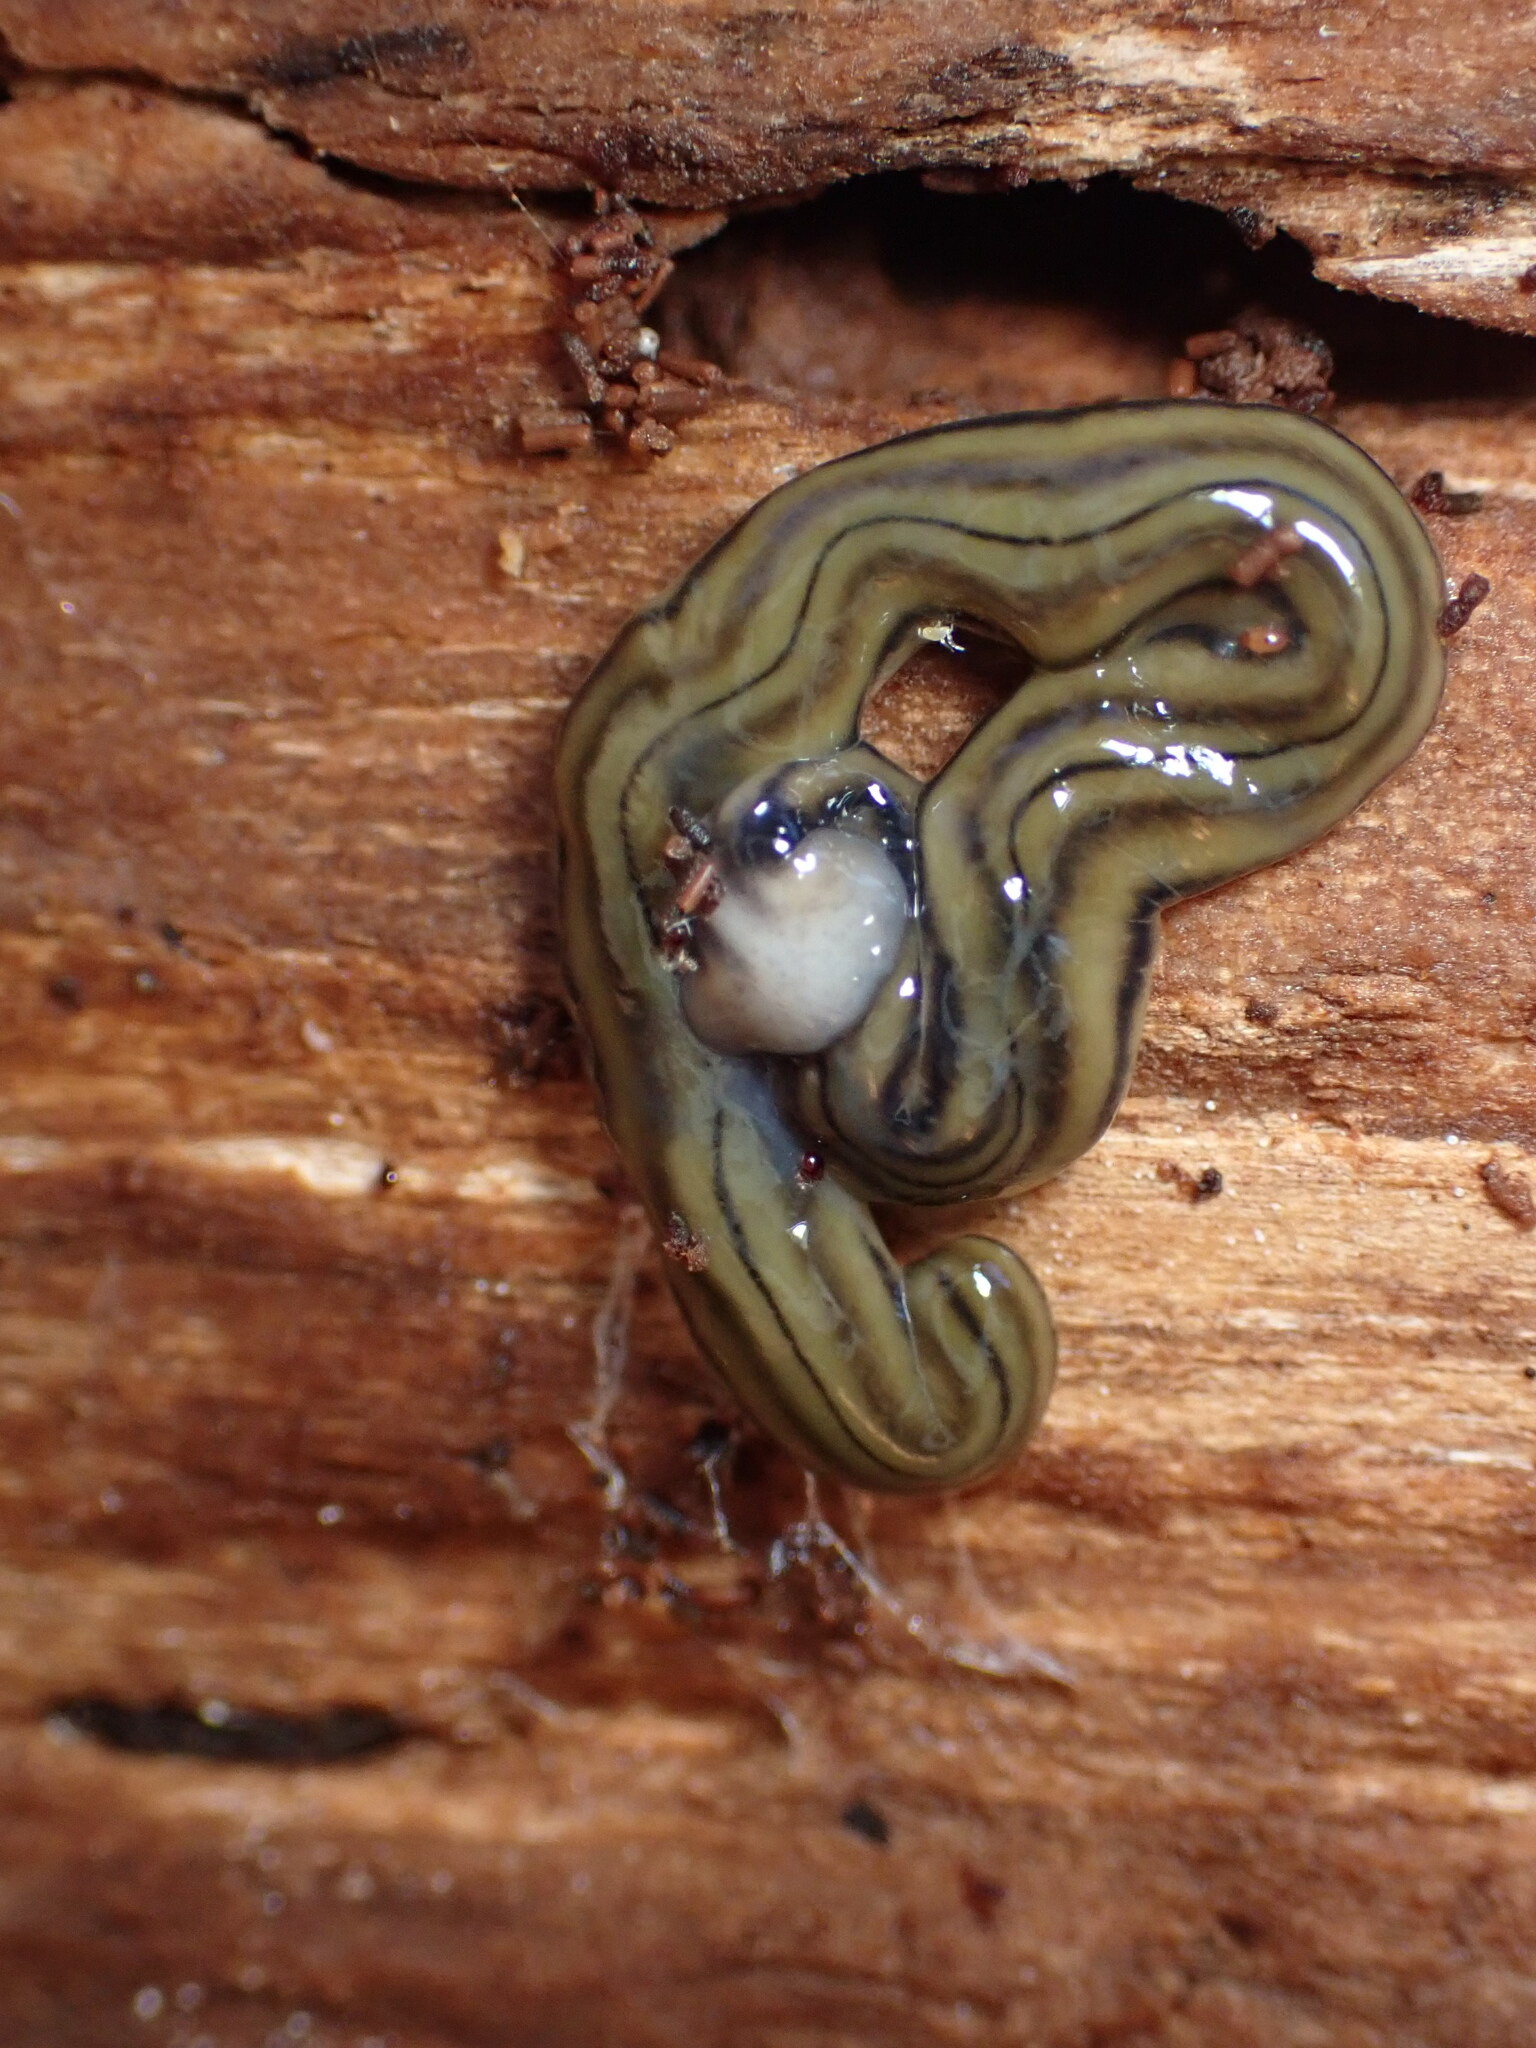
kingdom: Animalia
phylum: Platyhelminthes
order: Tricladida
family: Geoplanidae
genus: Bipalium
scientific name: Bipalium kewense
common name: Hammerhead flatworm
